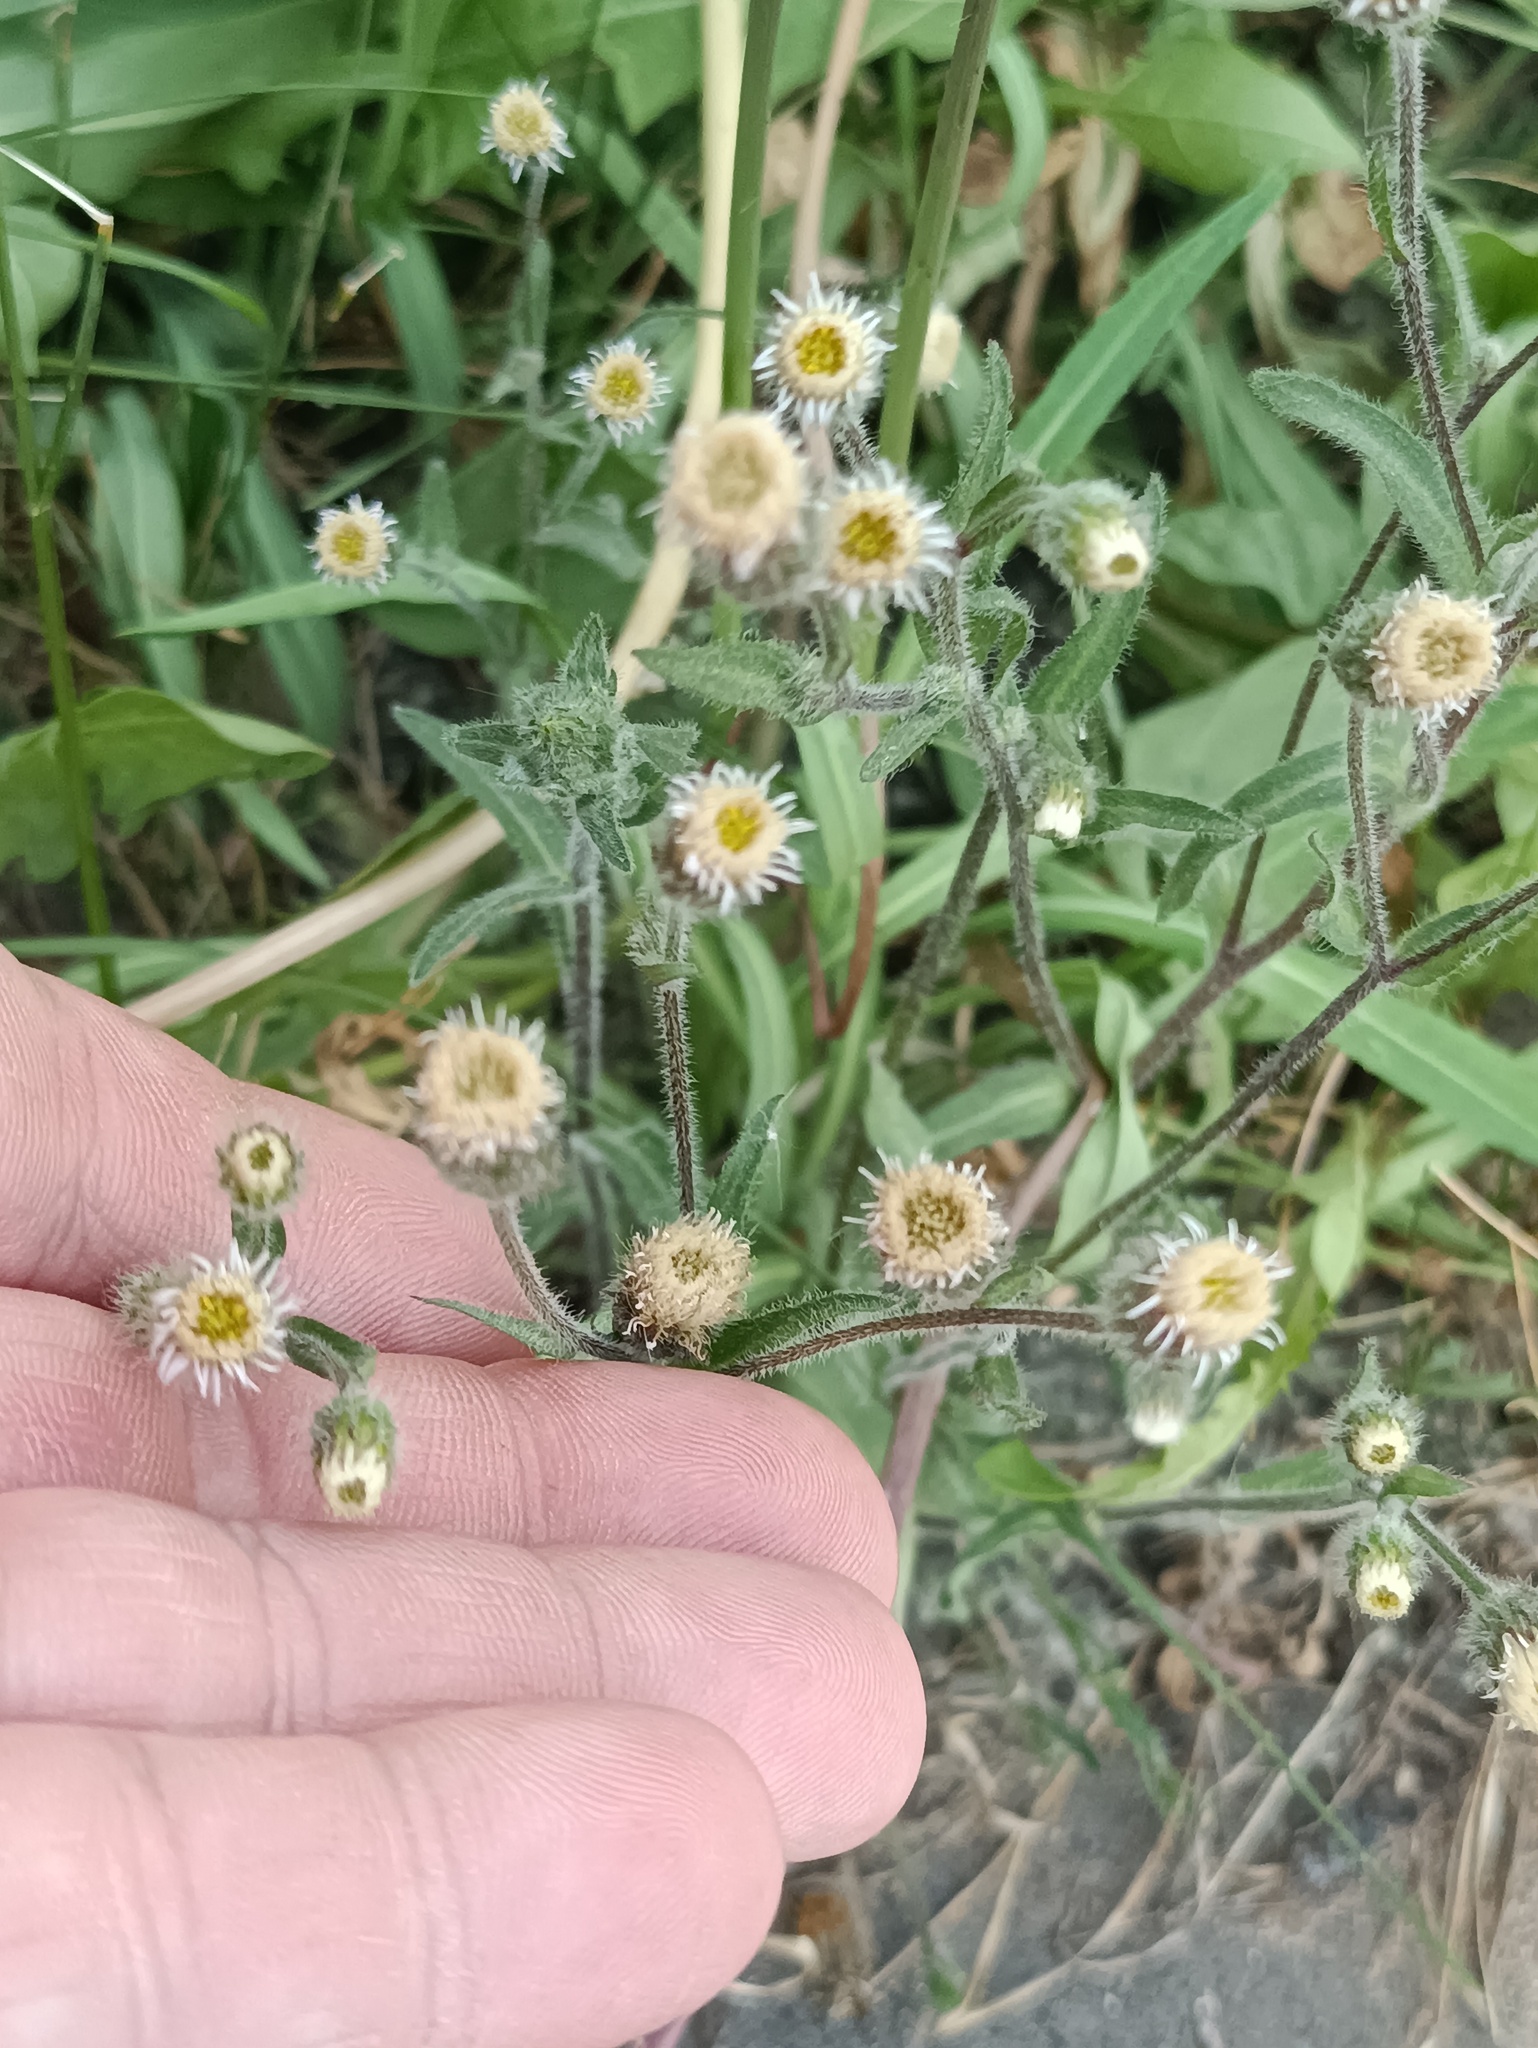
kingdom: Plantae
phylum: Tracheophyta
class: Magnoliopsida
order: Asterales
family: Asteraceae
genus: Erigeron
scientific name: Erigeron acris
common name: Blue fleabane
